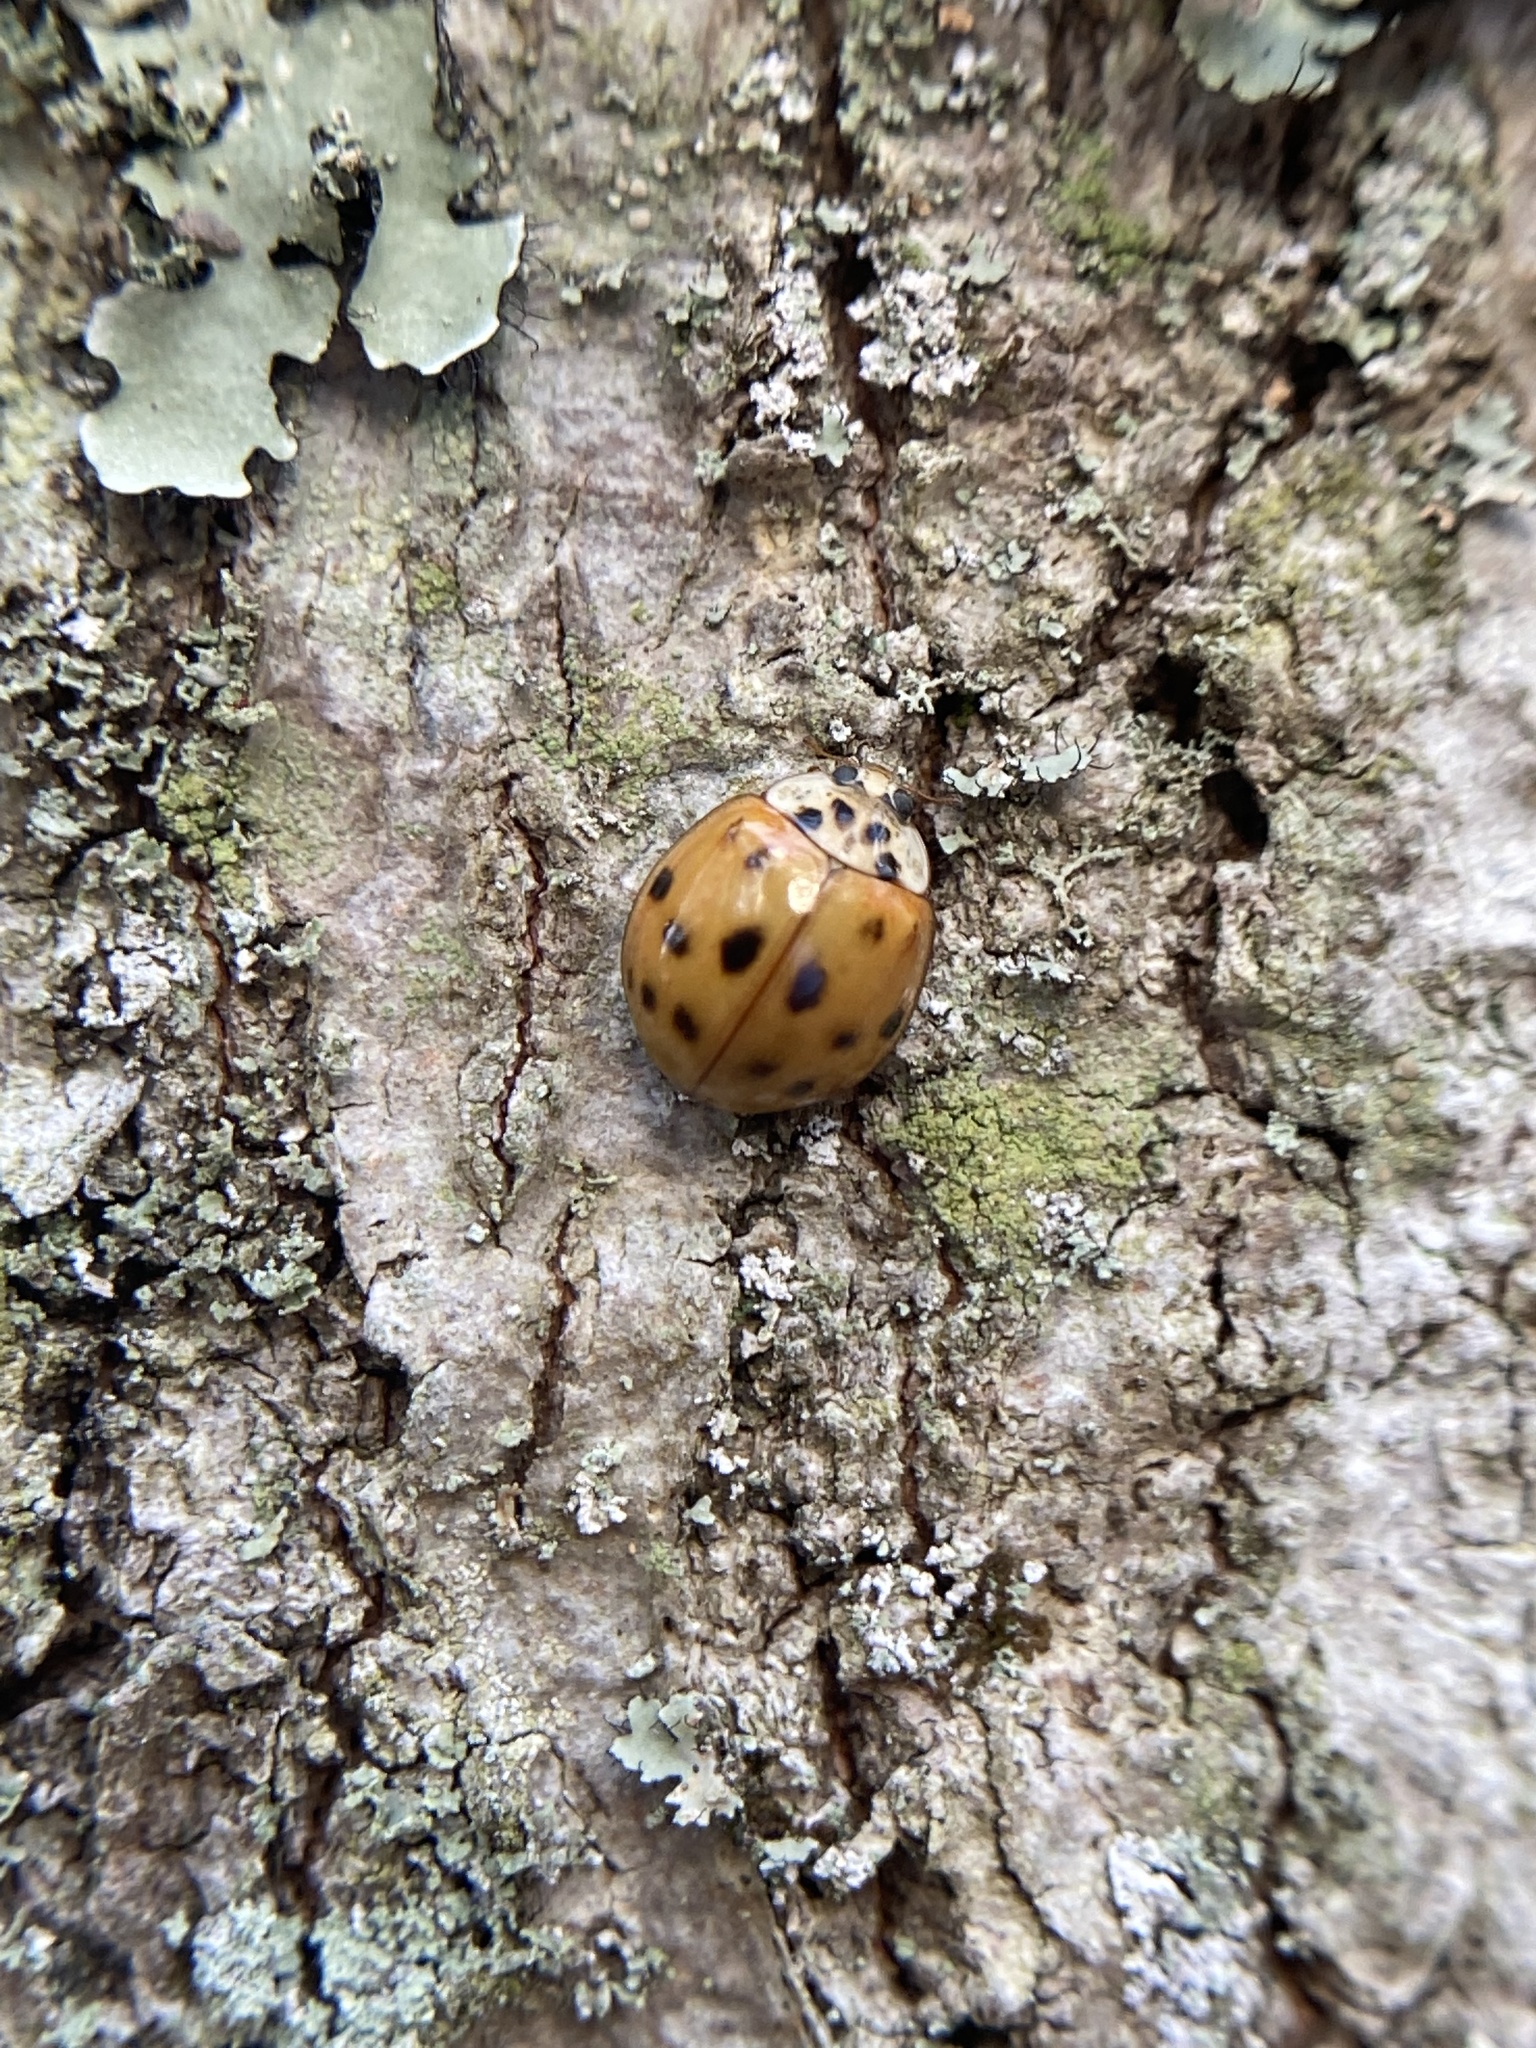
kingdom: Animalia
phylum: Arthropoda
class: Insecta
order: Coleoptera
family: Coccinellidae
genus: Harmonia
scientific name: Harmonia axyridis
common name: Harlequin ladybird
